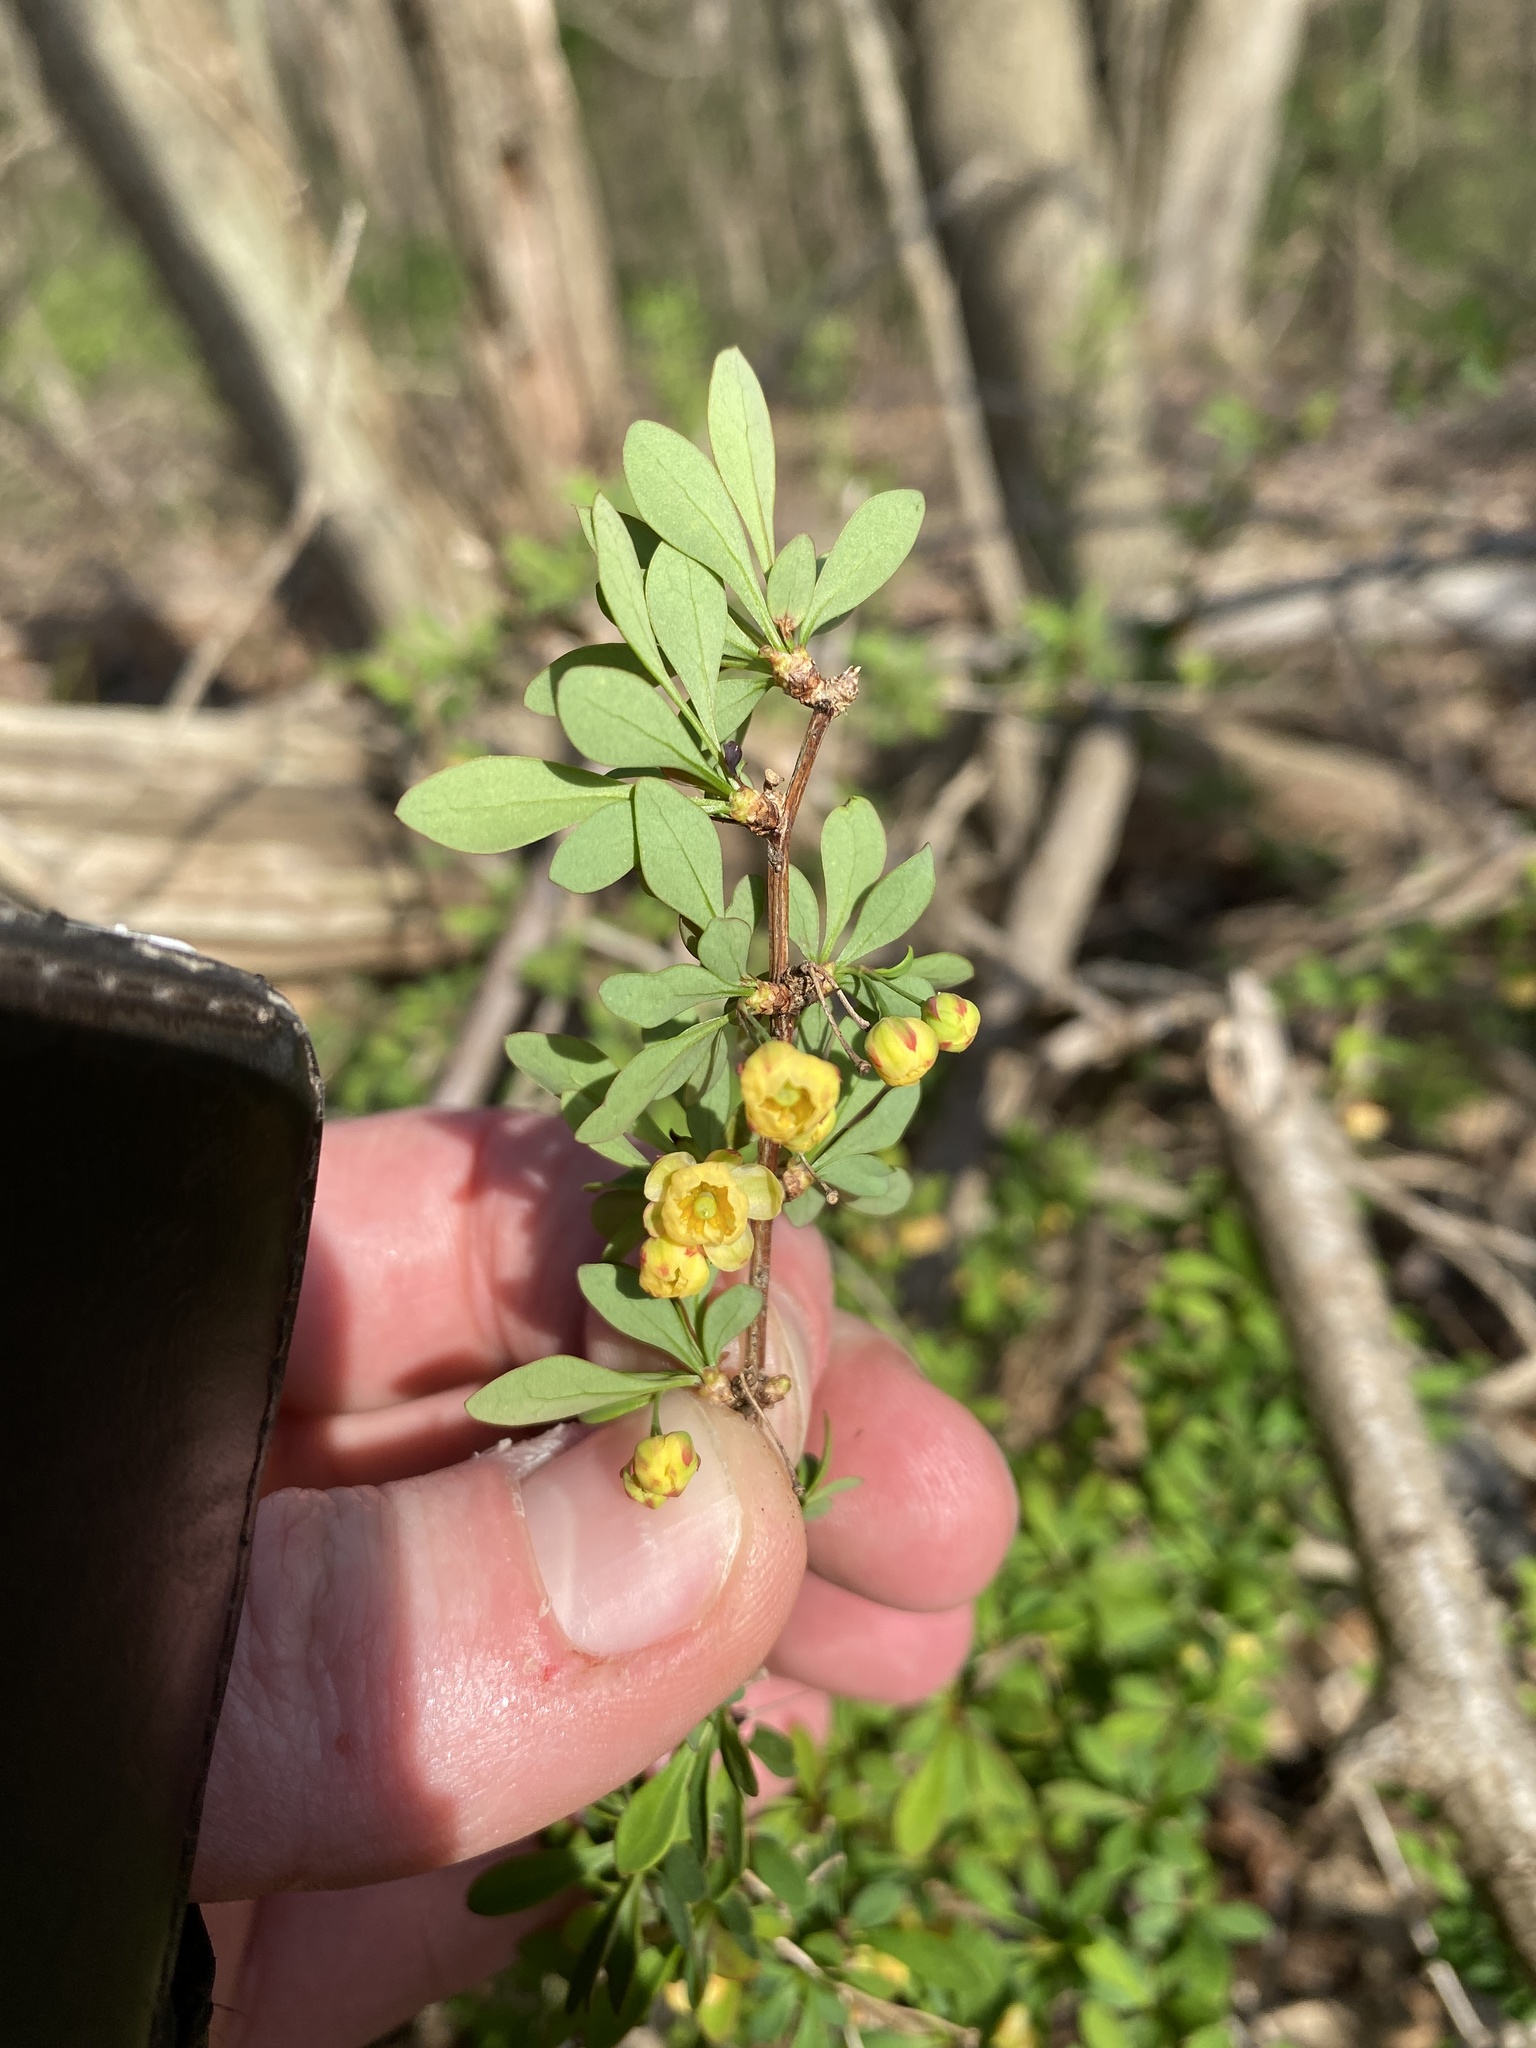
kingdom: Plantae
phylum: Tracheophyta
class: Magnoliopsida
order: Ranunculales
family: Berberidaceae
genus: Berberis
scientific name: Berberis thunbergii
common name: Japanese barberry
